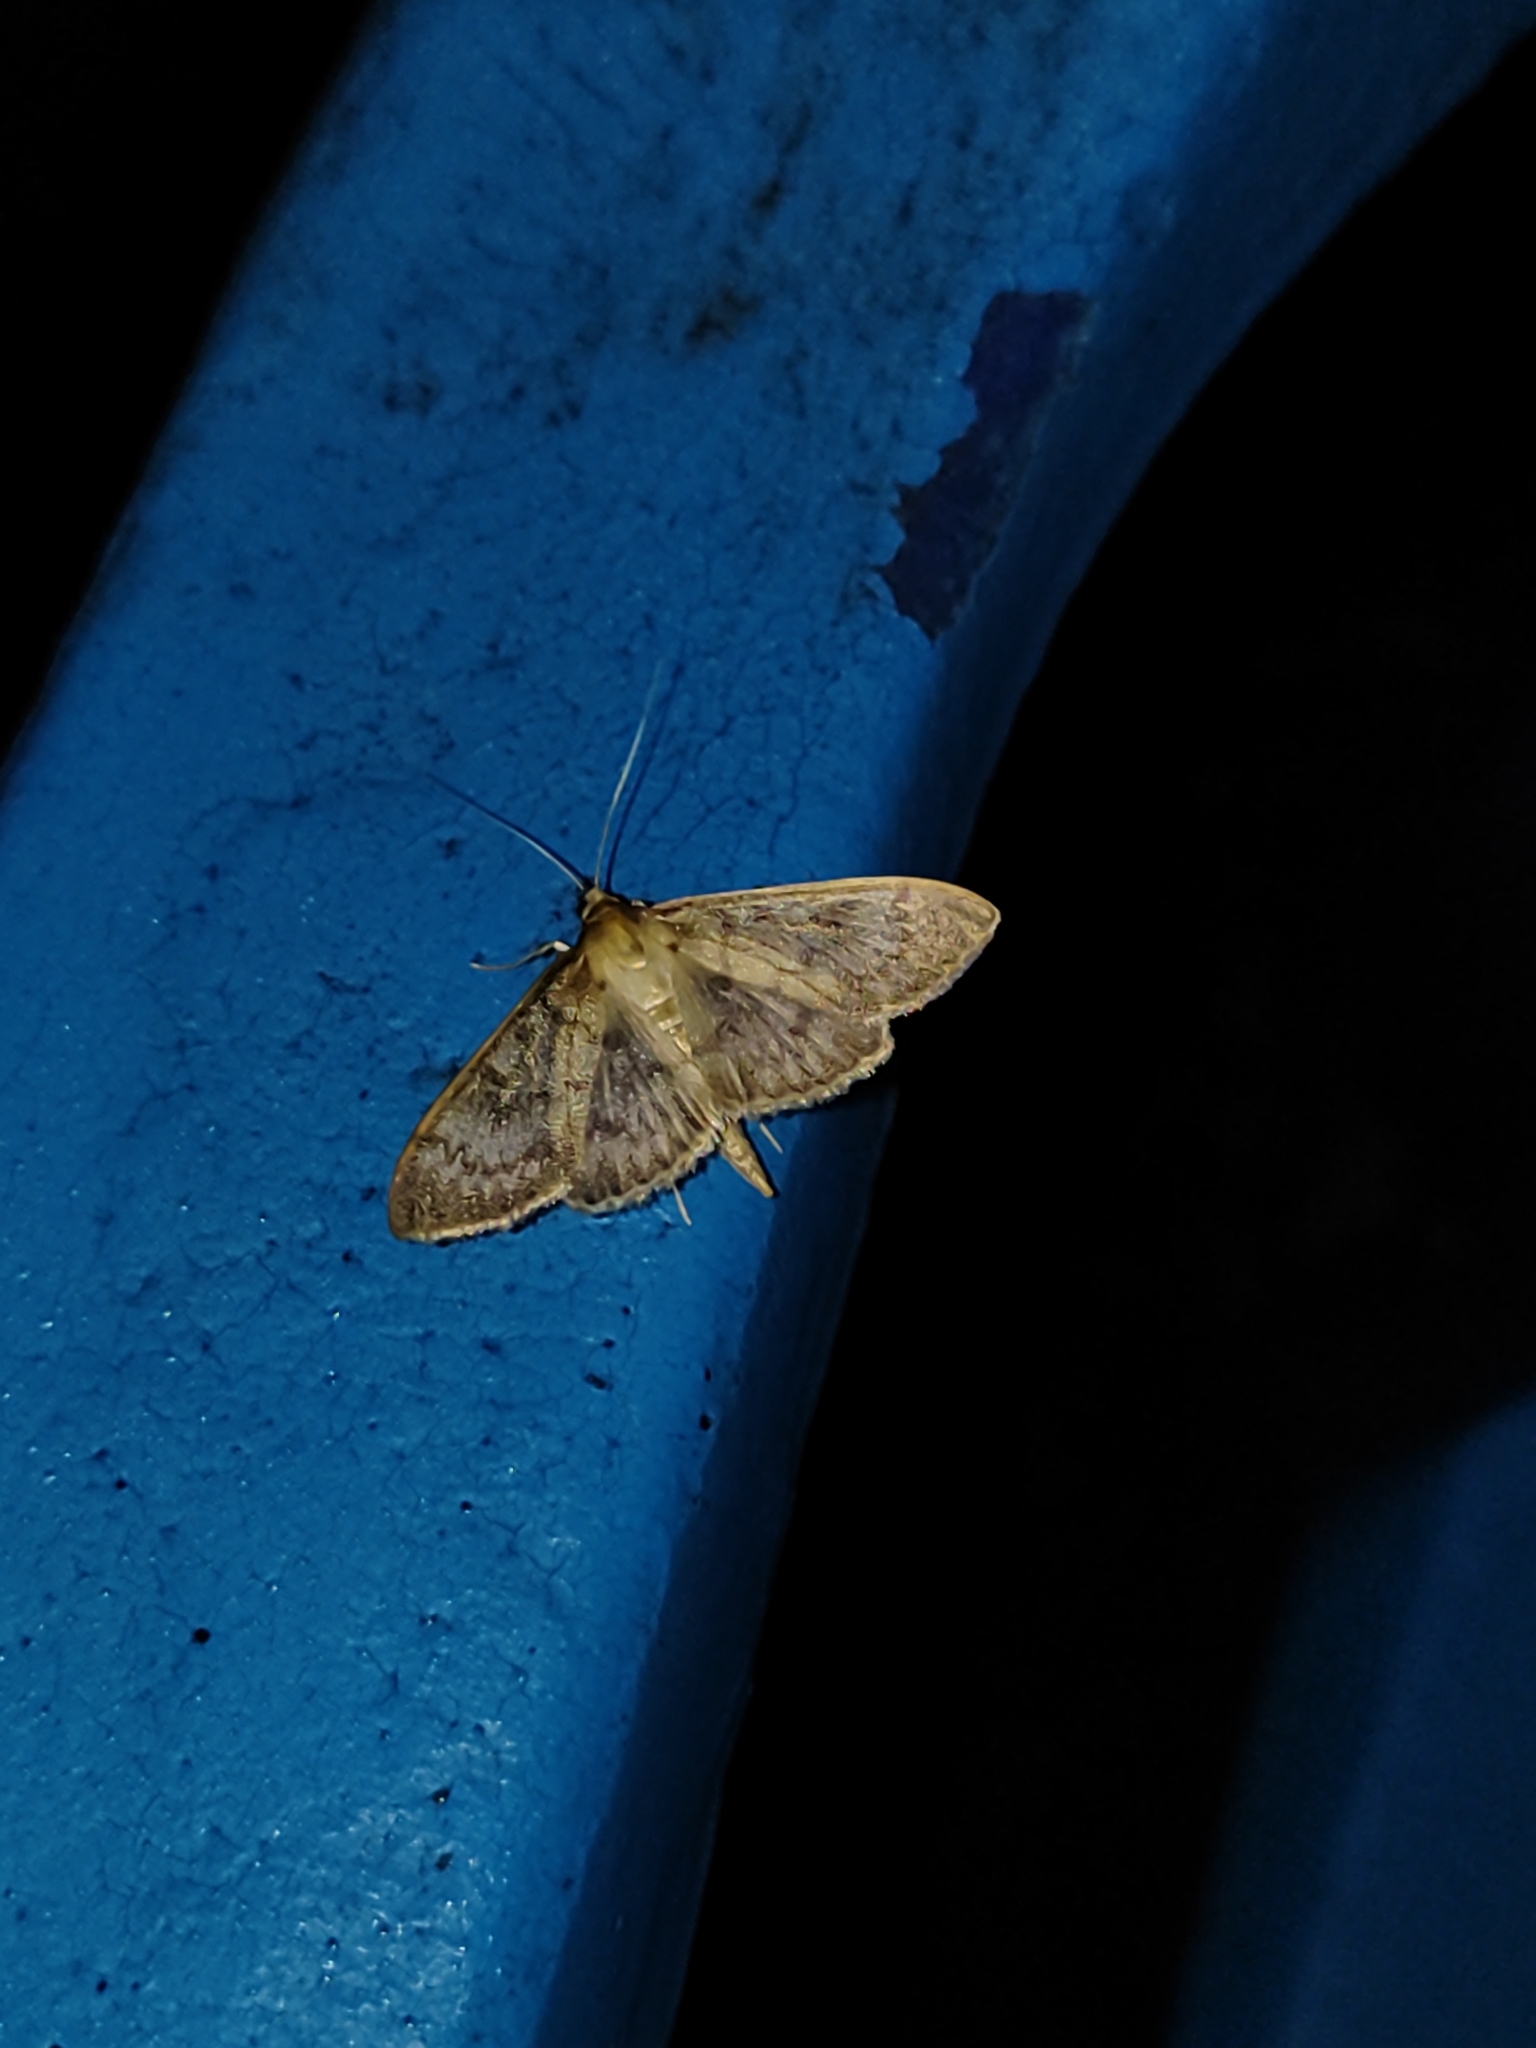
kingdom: Animalia
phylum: Arthropoda
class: Insecta
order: Lepidoptera
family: Crambidae
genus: Patania
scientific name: Patania ruralis
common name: Mother of pearl
